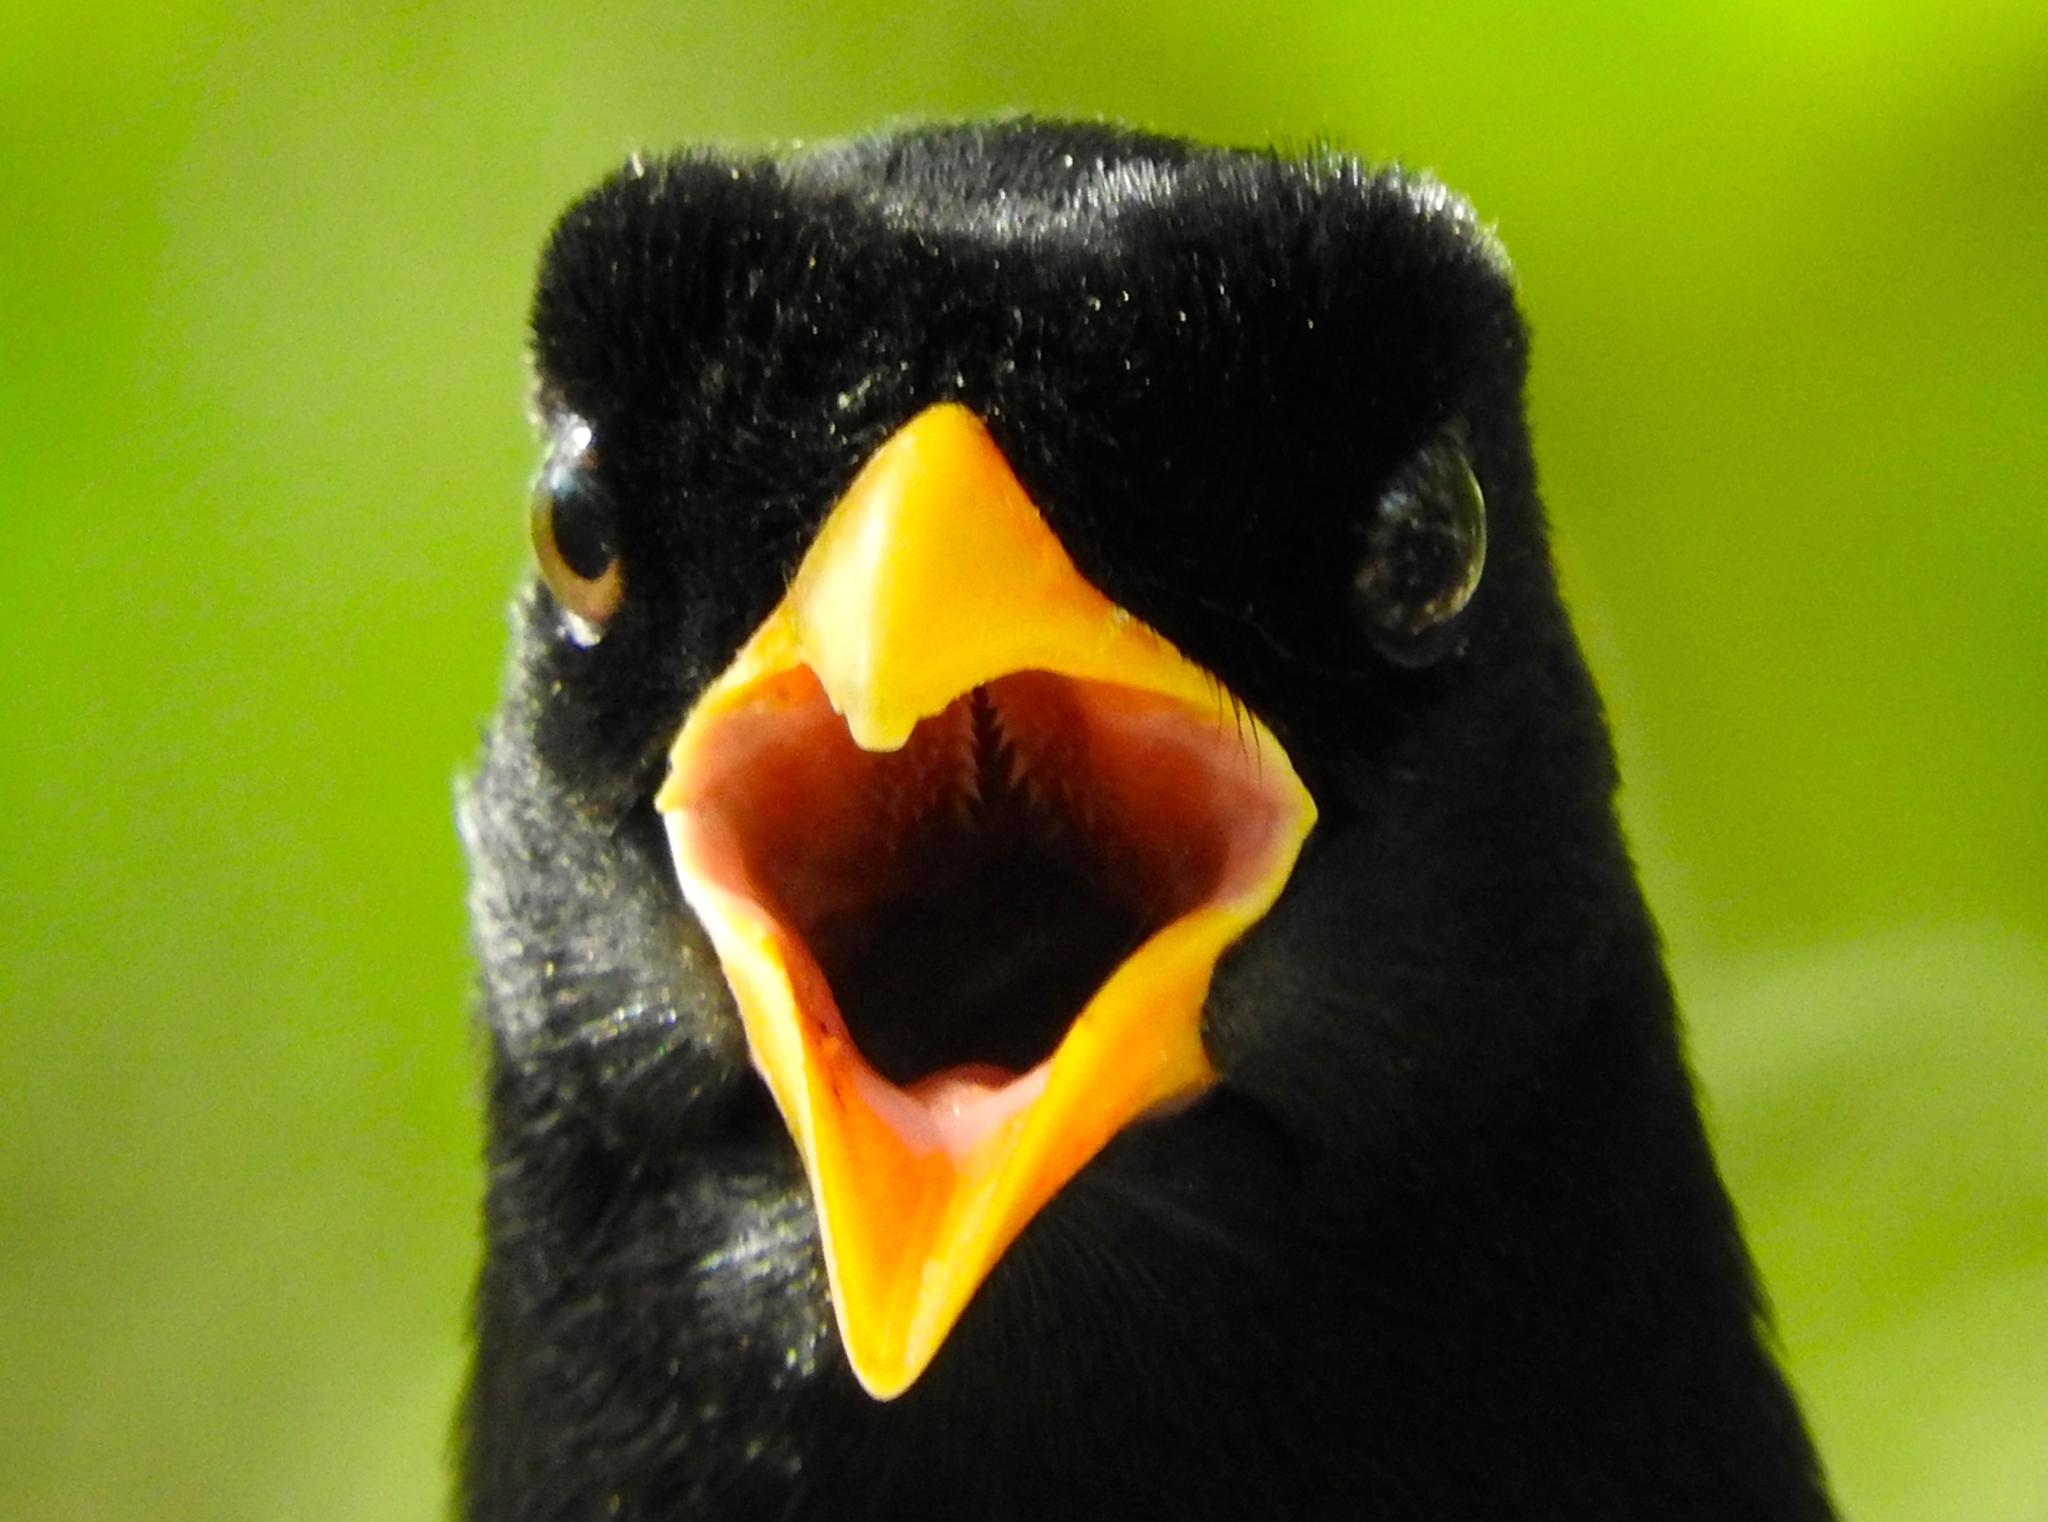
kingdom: Animalia
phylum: Chordata
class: Aves
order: Passeriformes
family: Corvidae
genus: Cyanocorax
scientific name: Cyanocorax beecheii
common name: Purplish-backed jay
